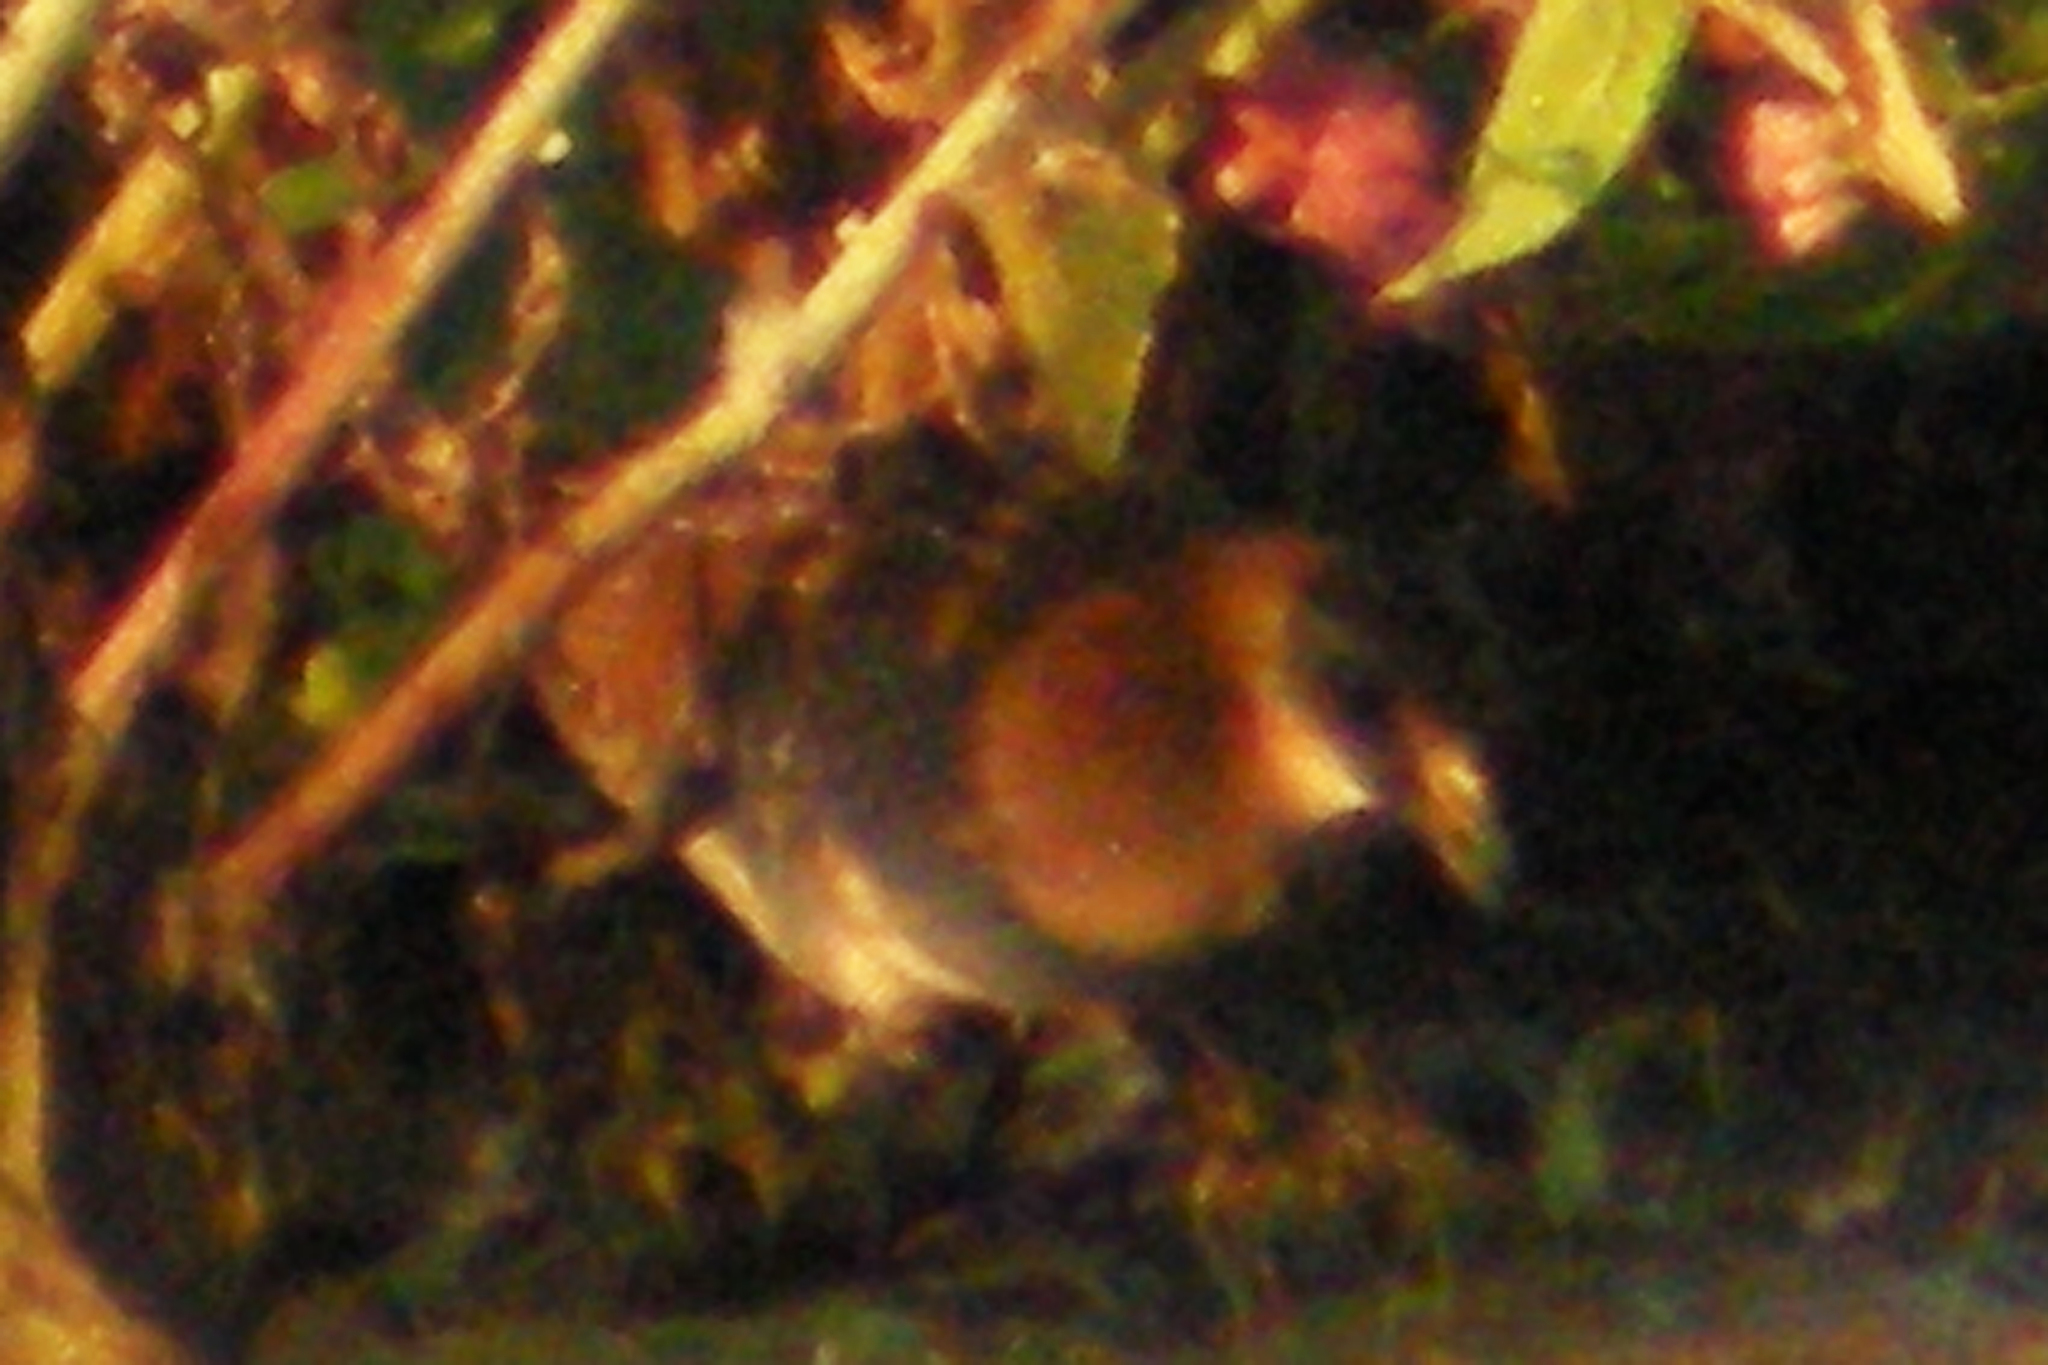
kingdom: Animalia
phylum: Chordata
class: Aves
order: Gruiformes
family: Rallidae
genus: Porzana
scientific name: Porzana carolina
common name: Sora
